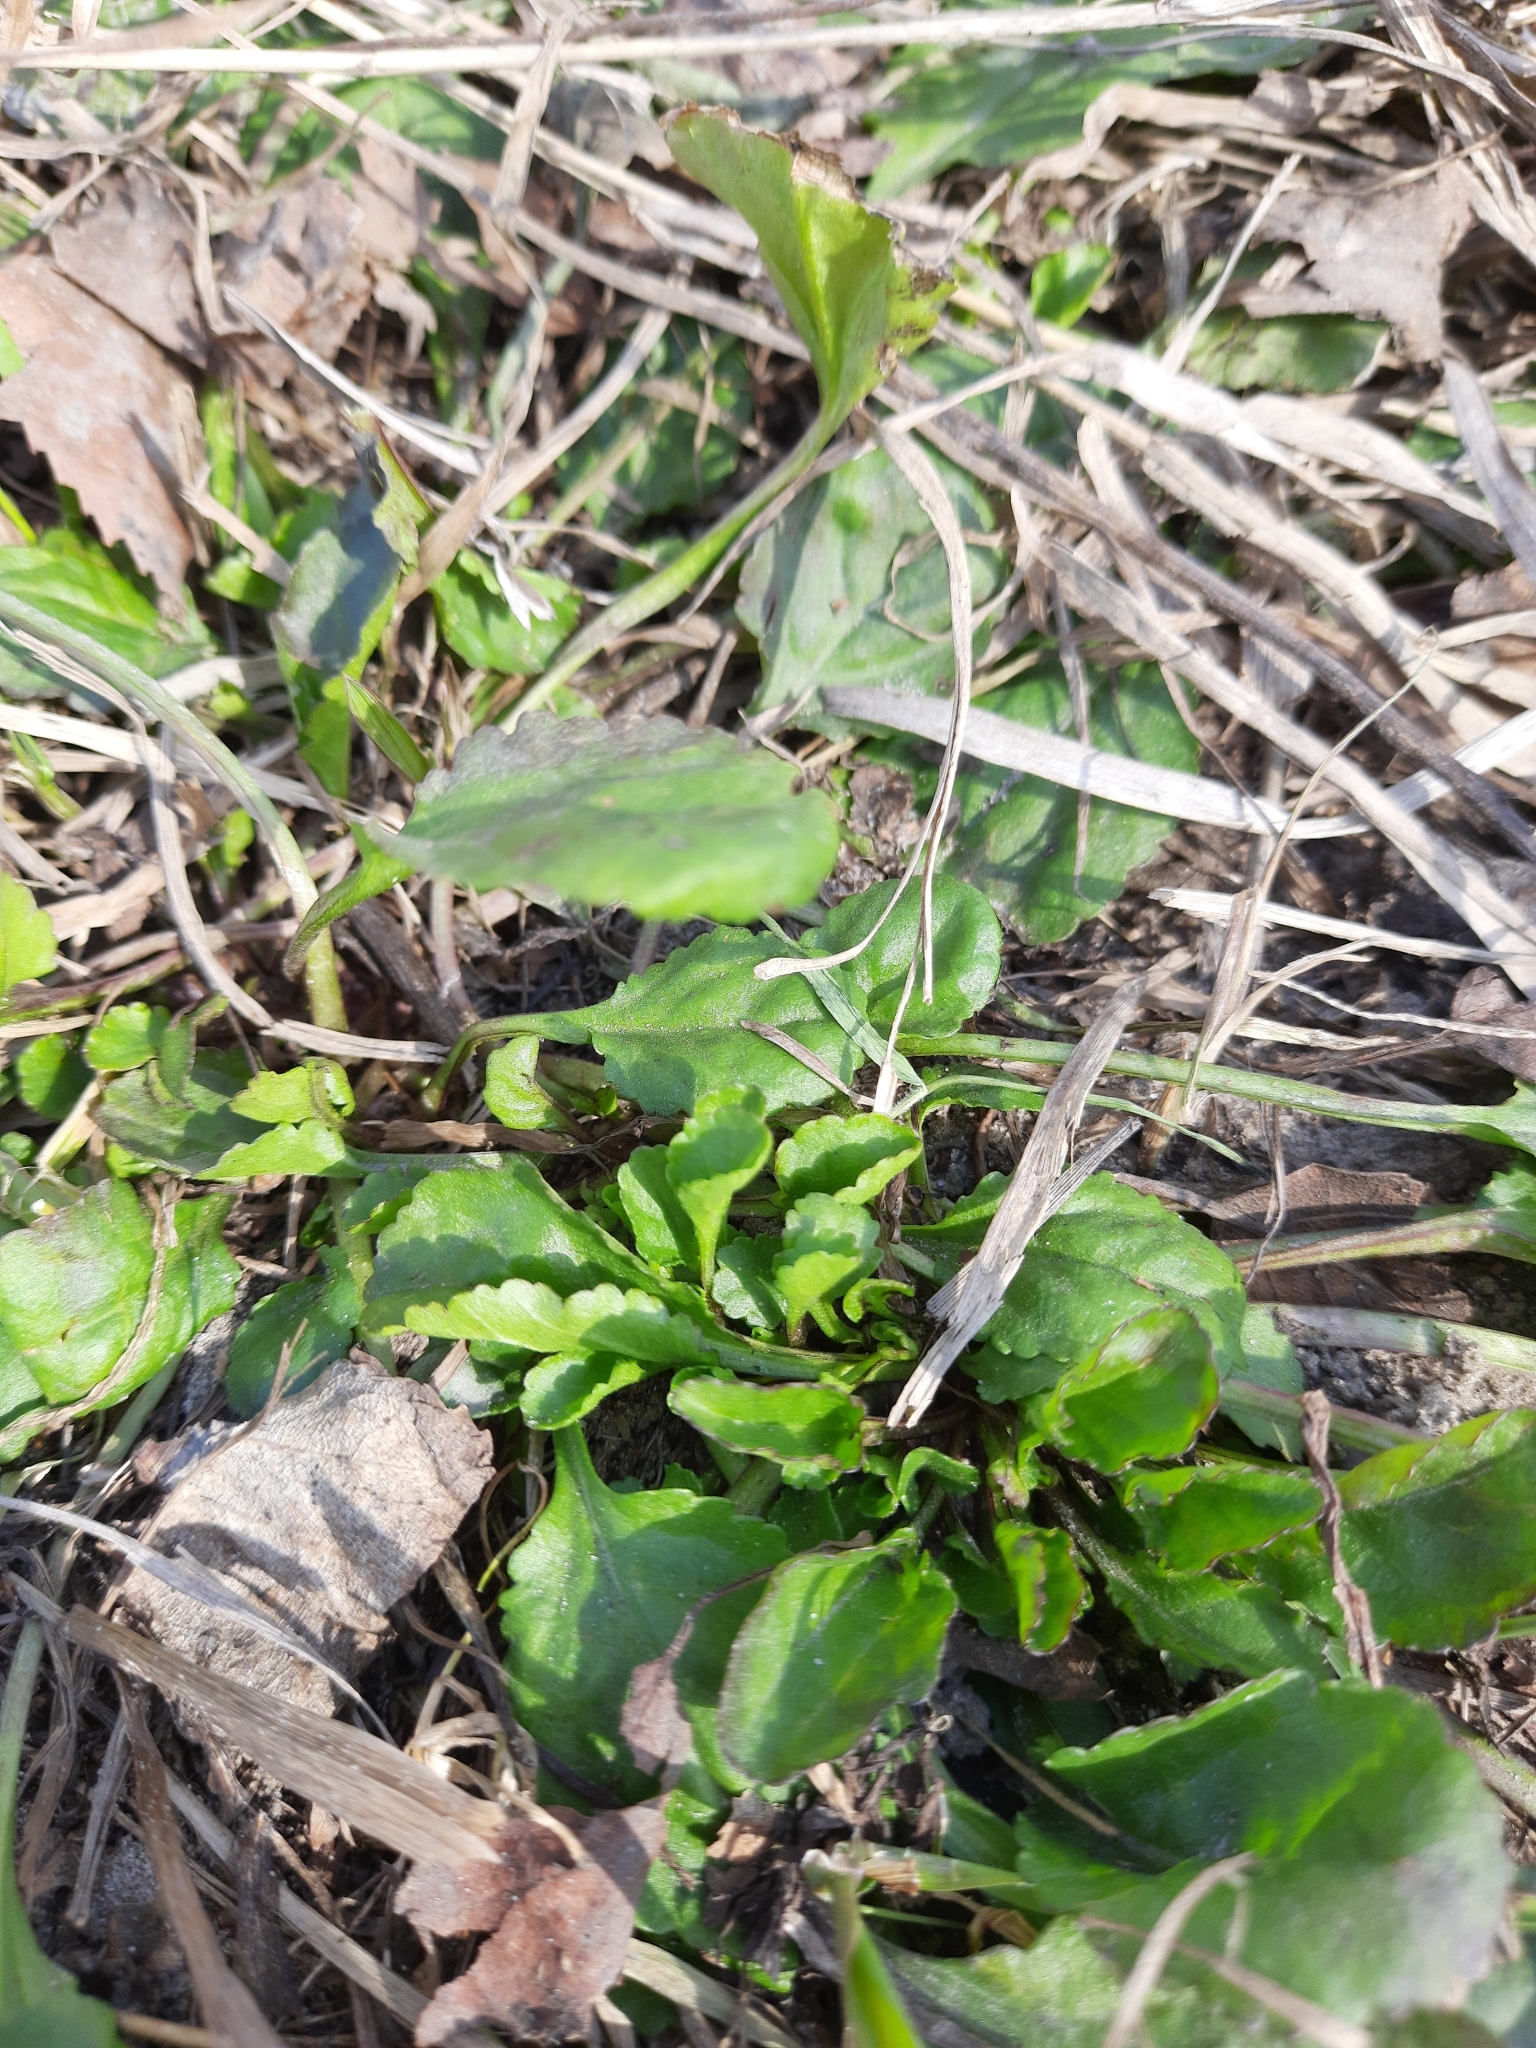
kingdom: Plantae
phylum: Tracheophyta
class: Magnoliopsida
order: Asterales
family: Asteraceae
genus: Leucanthemum
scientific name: Leucanthemum ircutianum
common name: Daisy
